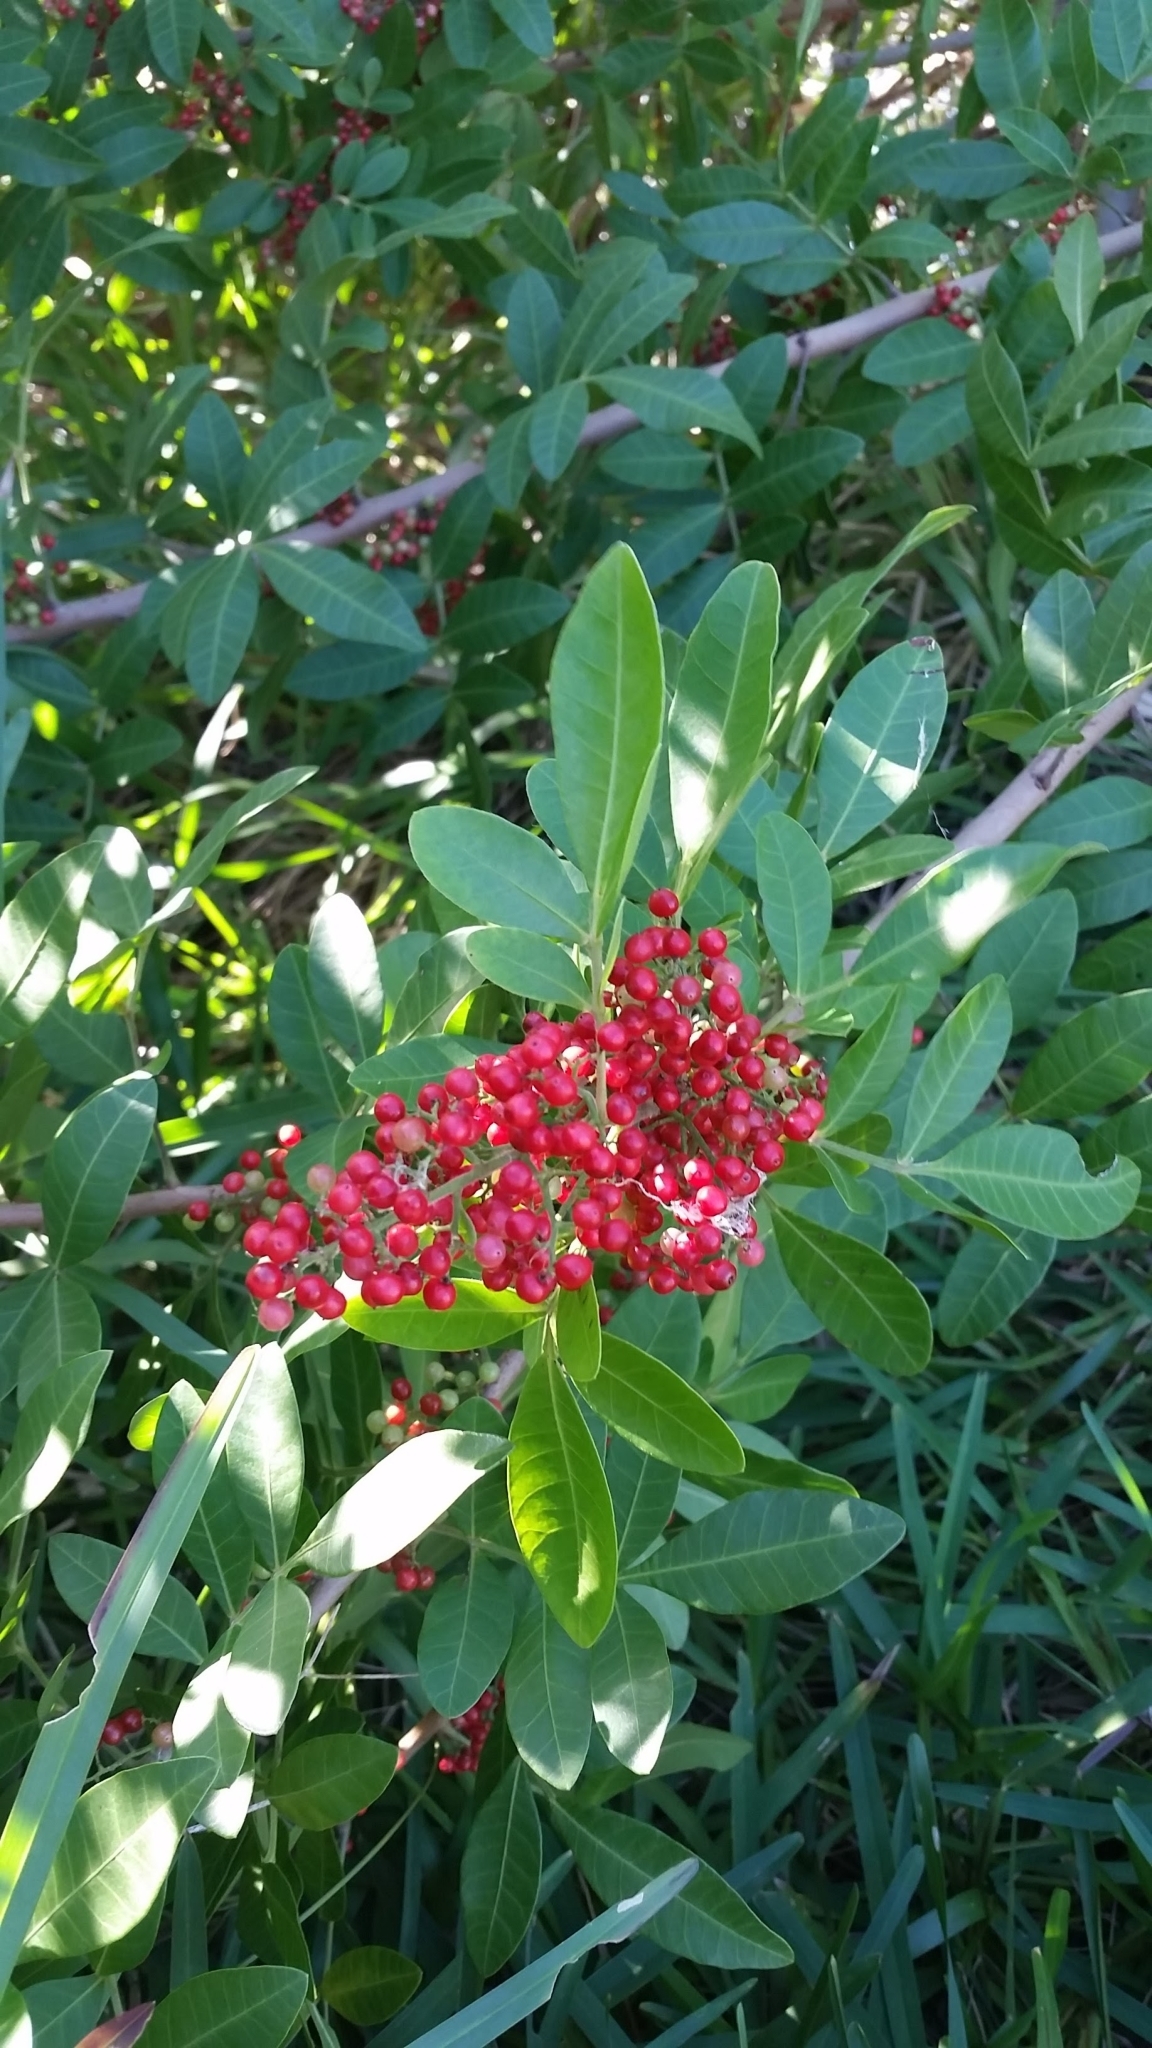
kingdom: Plantae
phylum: Tracheophyta
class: Magnoliopsida
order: Sapindales
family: Anacardiaceae
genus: Schinus
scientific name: Schinus terebinthifolia
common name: Brazilian peppertree
